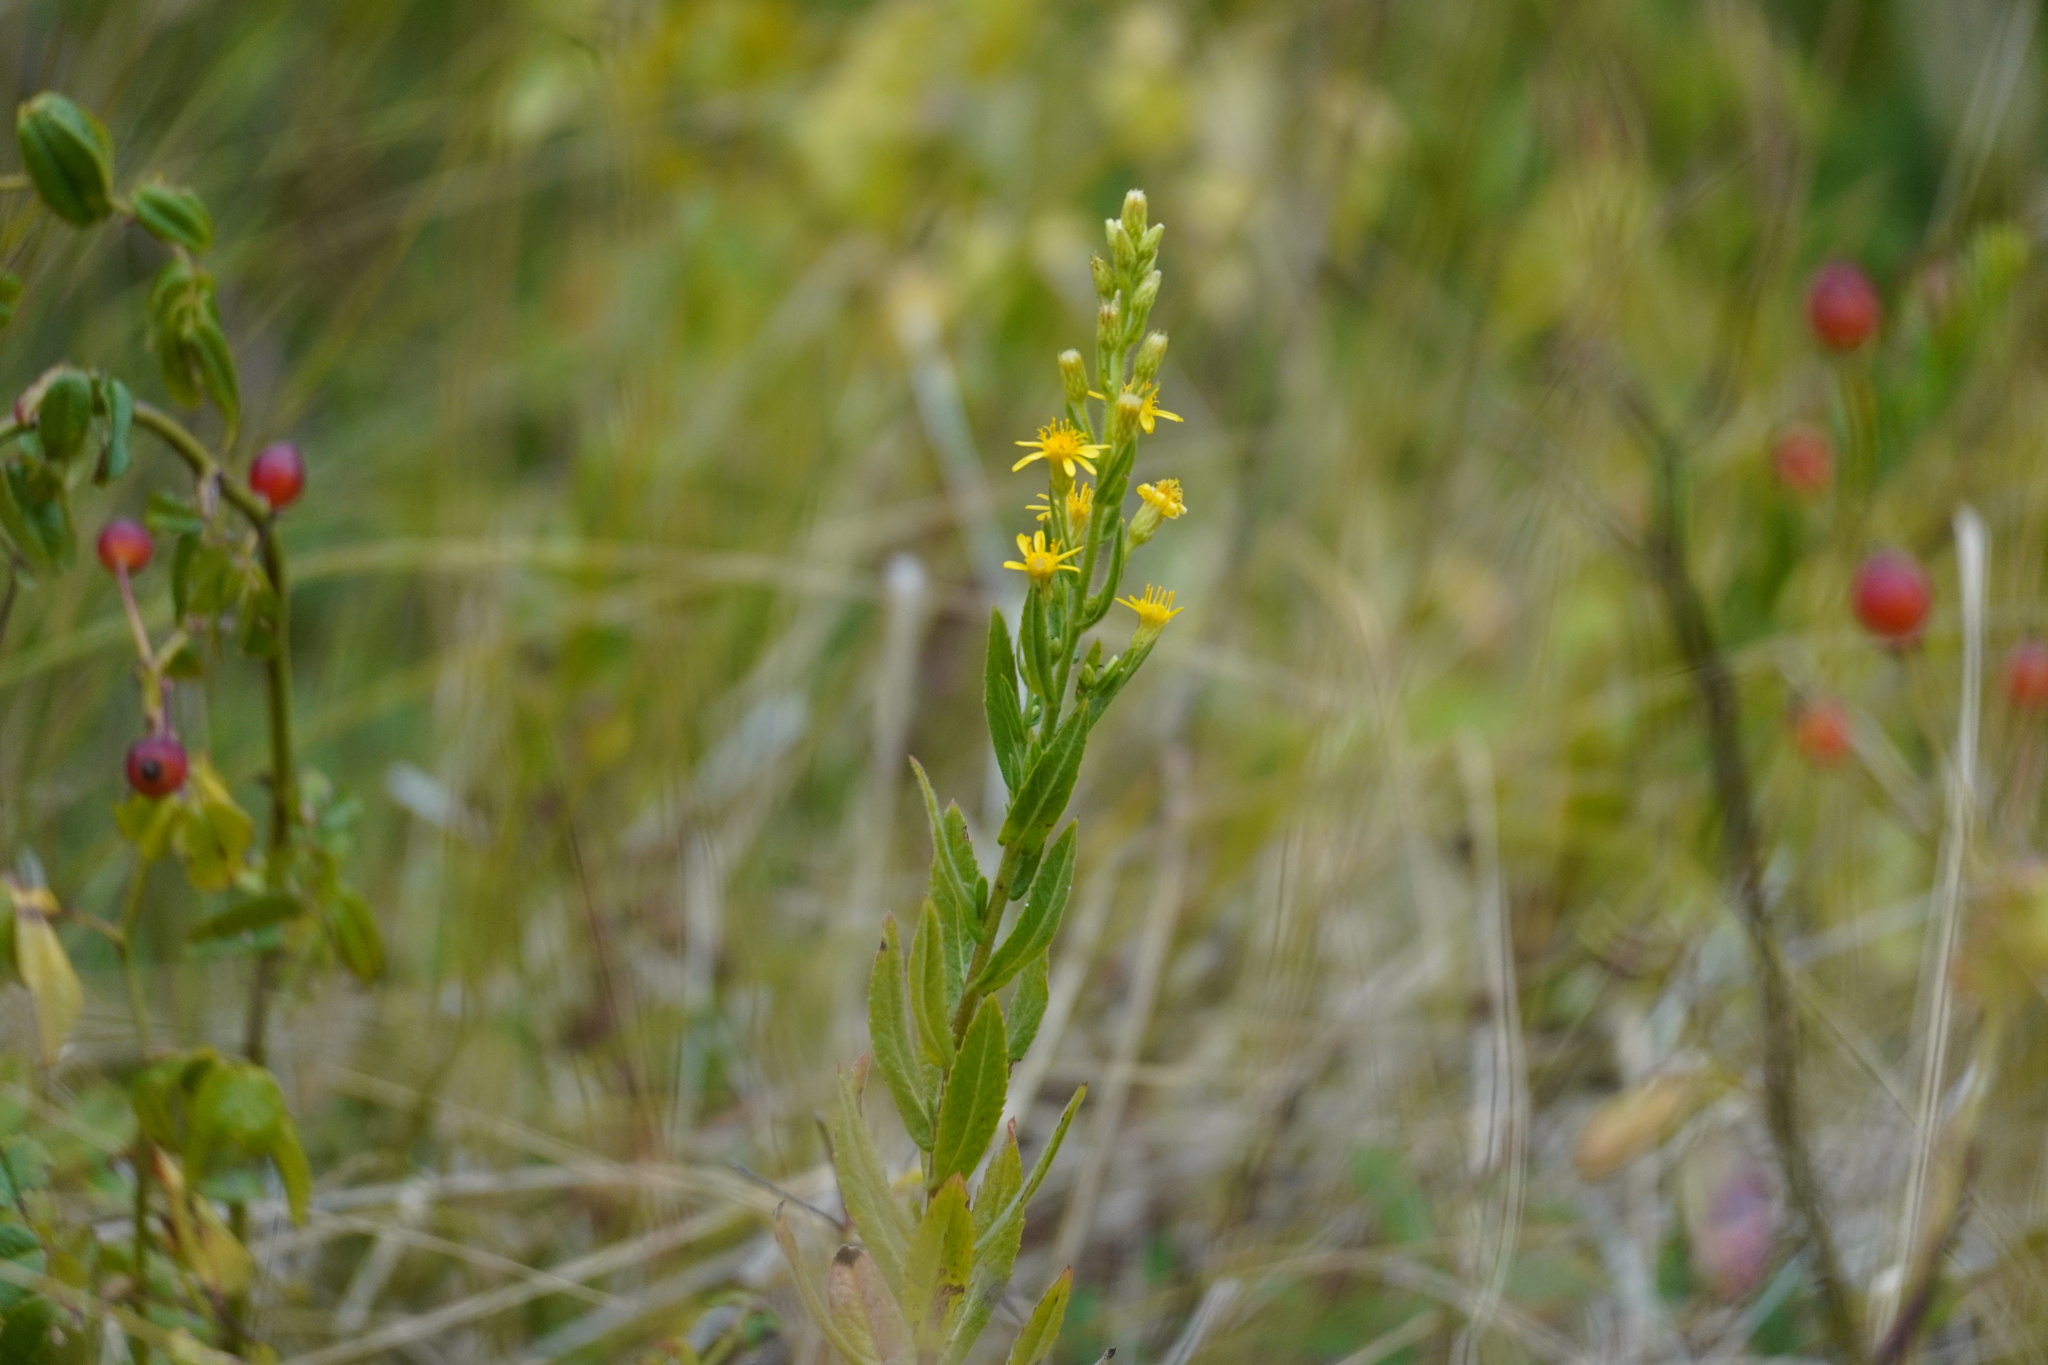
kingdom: Plantae
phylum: Tracheophyta
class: Magnoliopsida
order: Asterales
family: Asteraceae
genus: Dittrichia
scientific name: Dittrichia viscosa
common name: Woody fleabane
